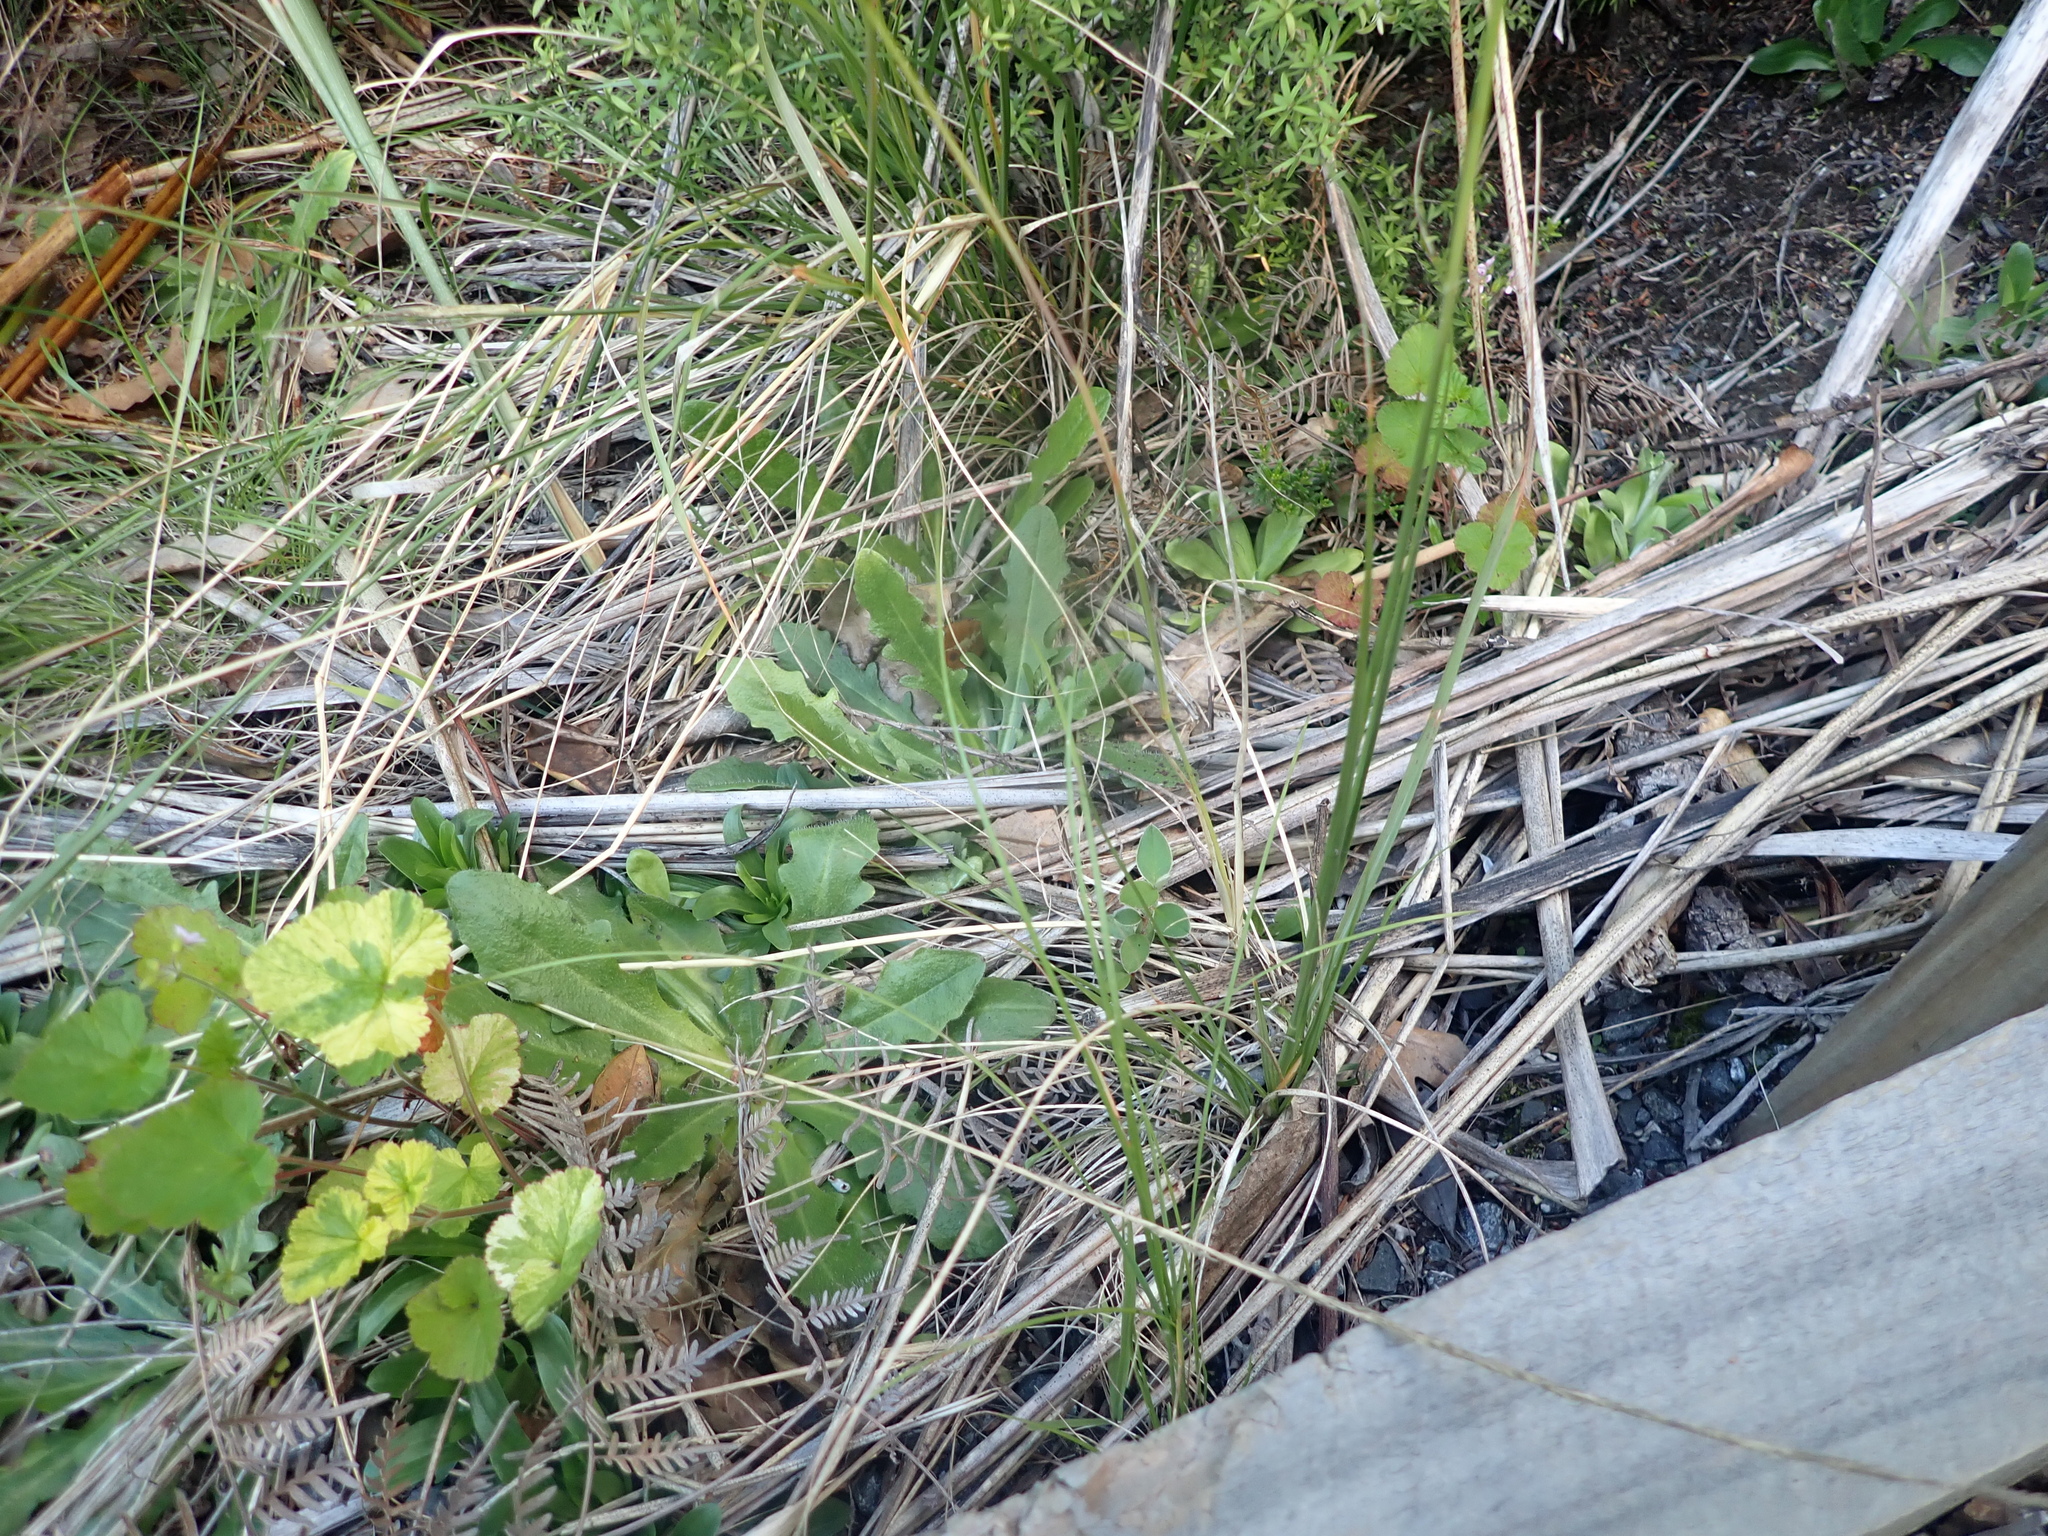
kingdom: Plantae
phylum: Tracheophyta
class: Magnoliopsida
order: Geraniales
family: Geraniaceae
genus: Pelargonium
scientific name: Pelargonium inodorum
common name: Kopata geranium
